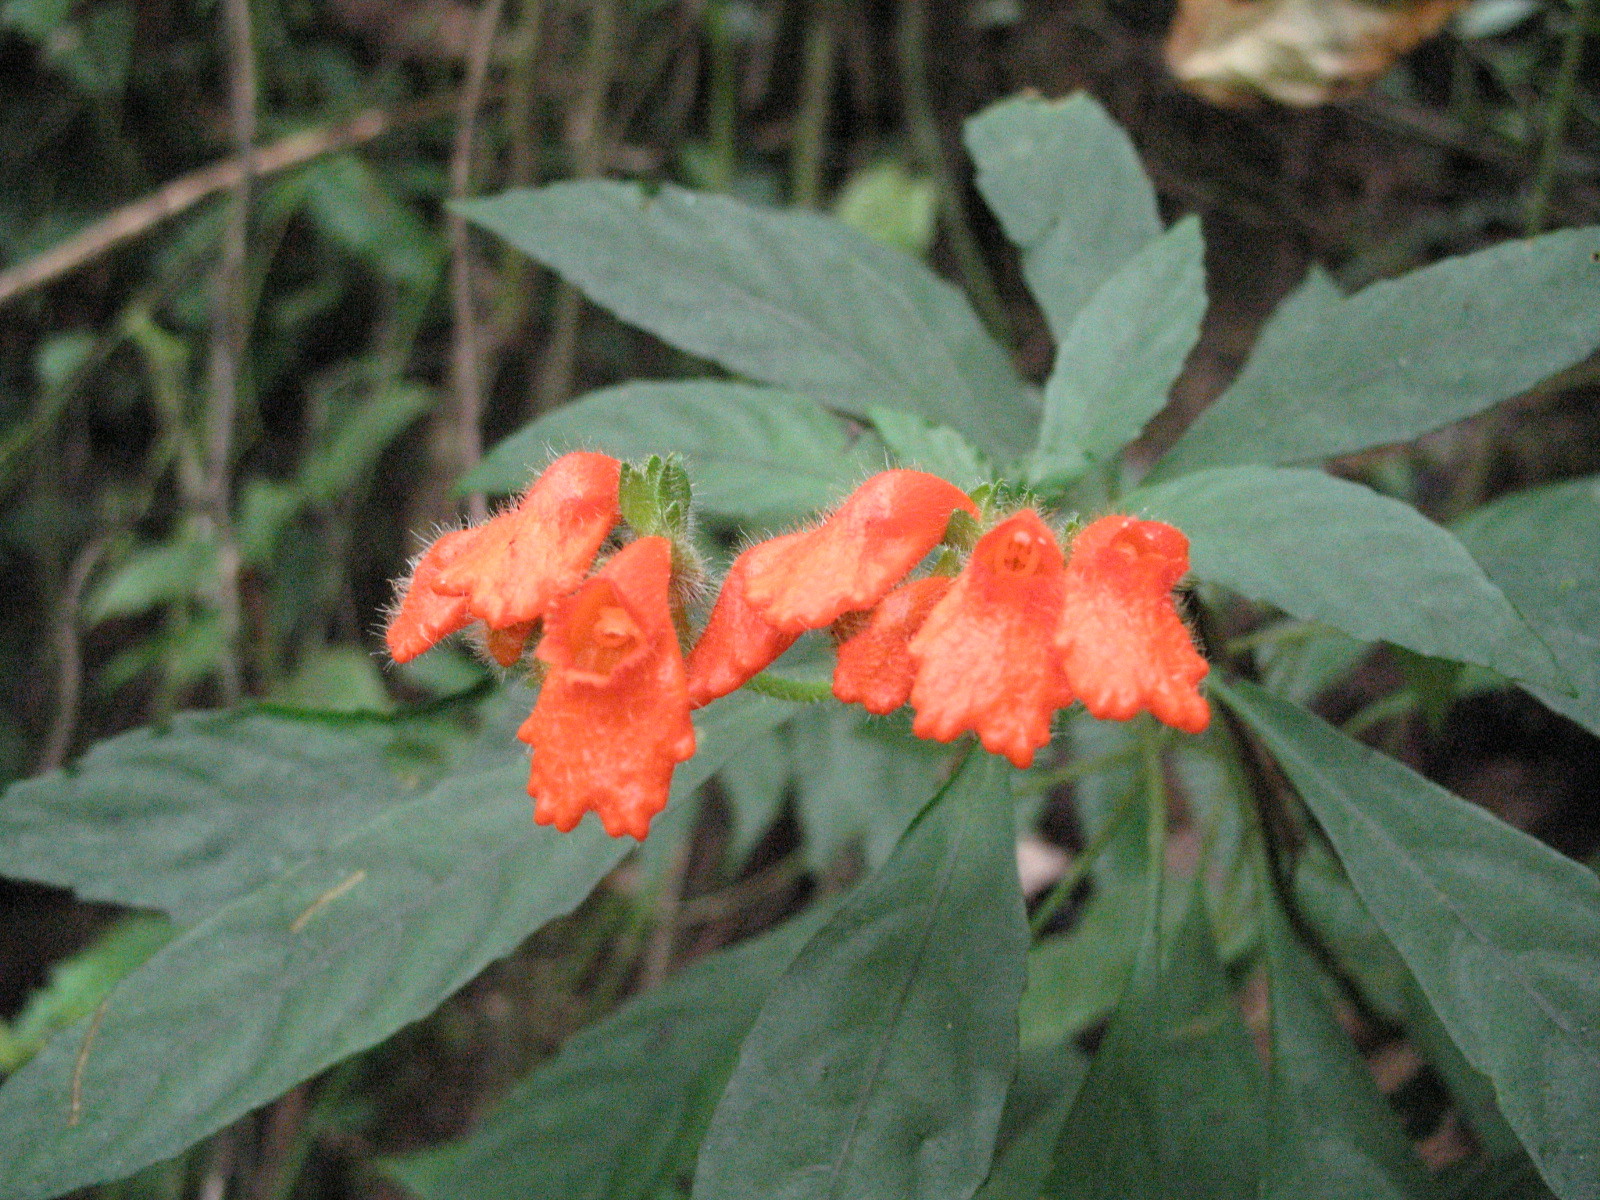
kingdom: Plantae
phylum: Tracheophyta
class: Magnoliopsida
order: Lamiales
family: Gesneriaceae
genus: Gasteranthus
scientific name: Gasteranthus diverticularis
